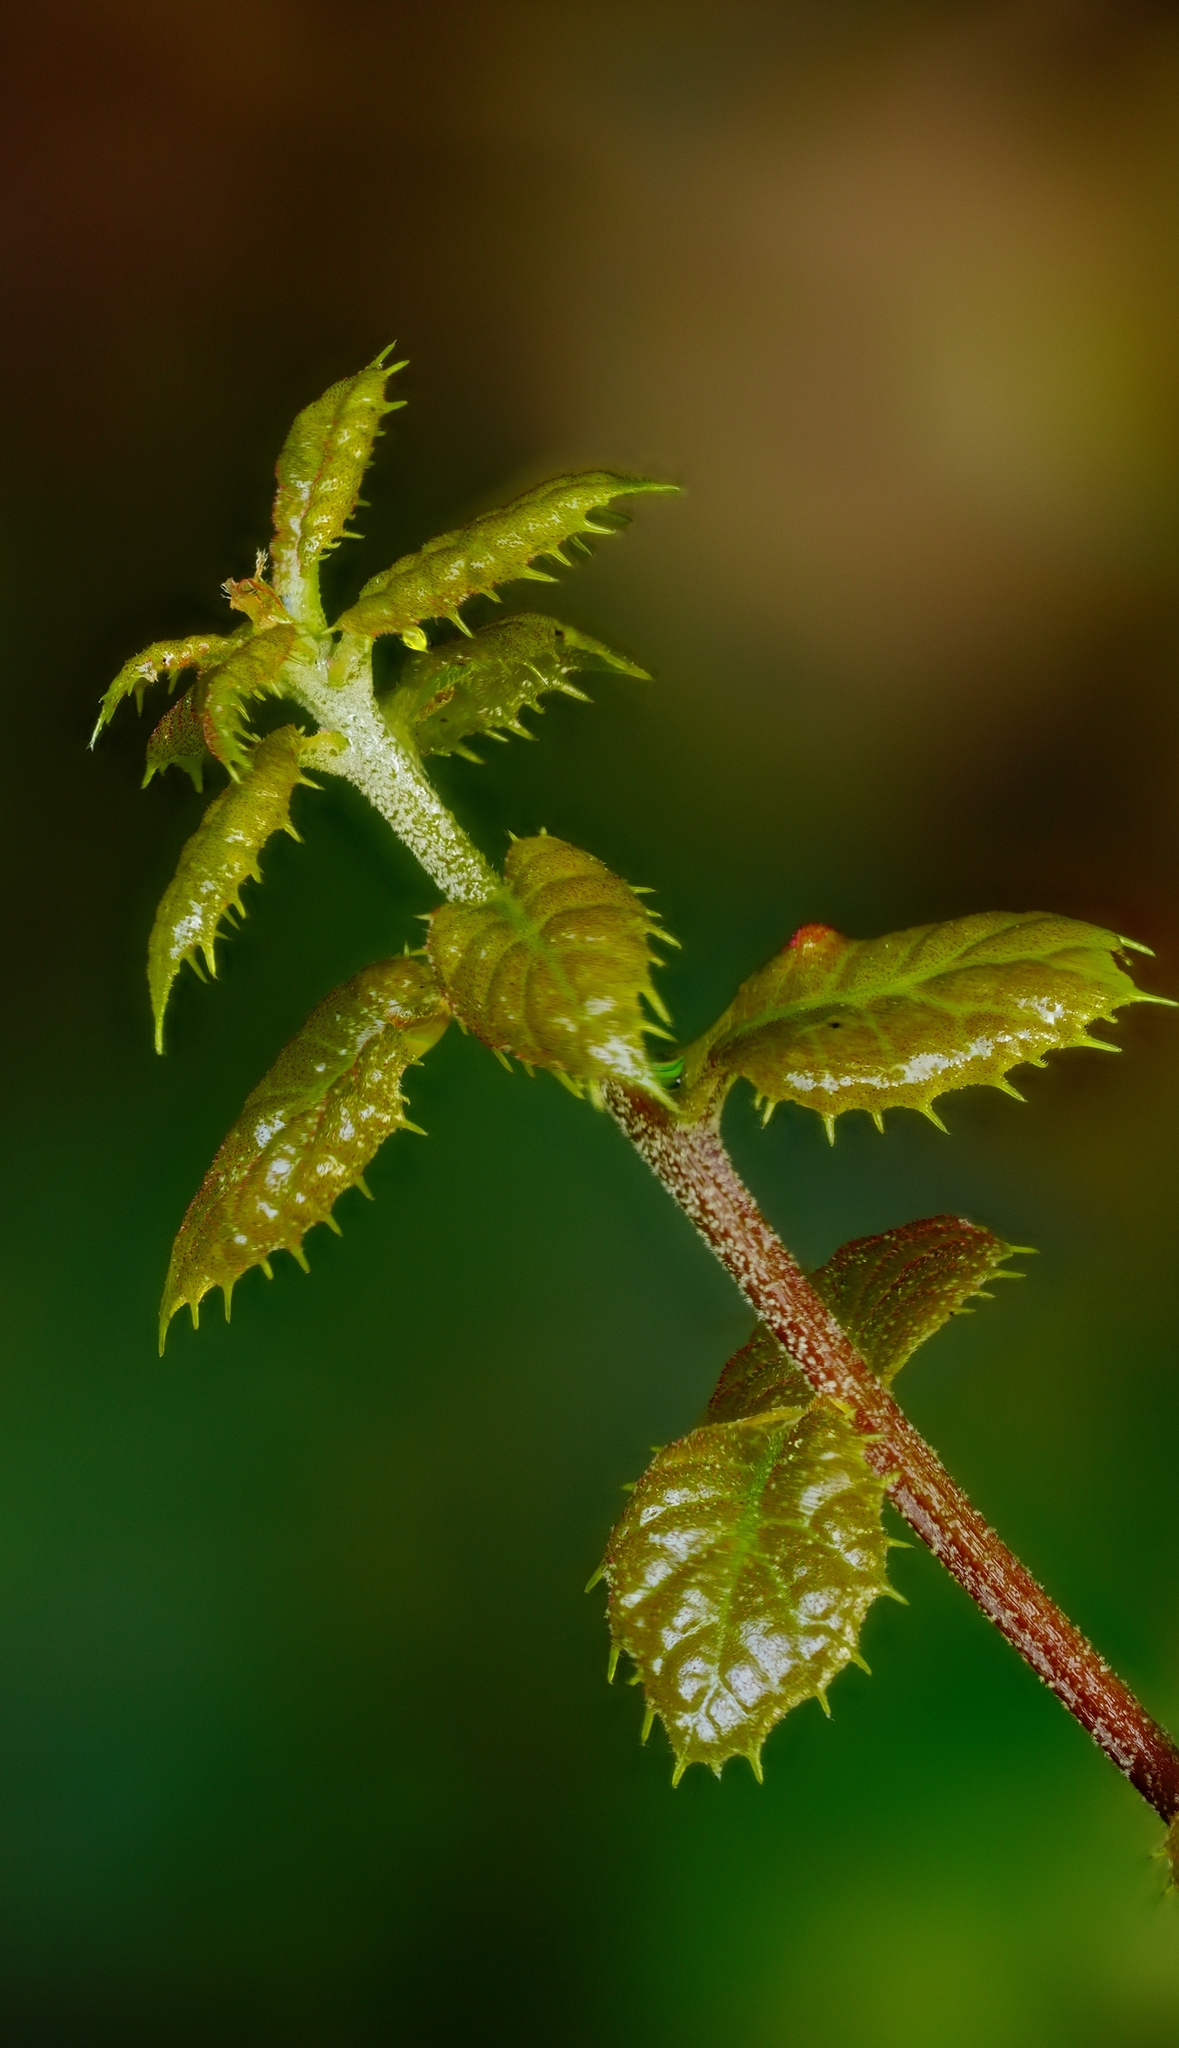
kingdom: Plantae
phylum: Tracheophyta
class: Magnoliopsida
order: Fagales
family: Fagaceae
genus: Quercus
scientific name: Quercus agrifolia
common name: California live oak
